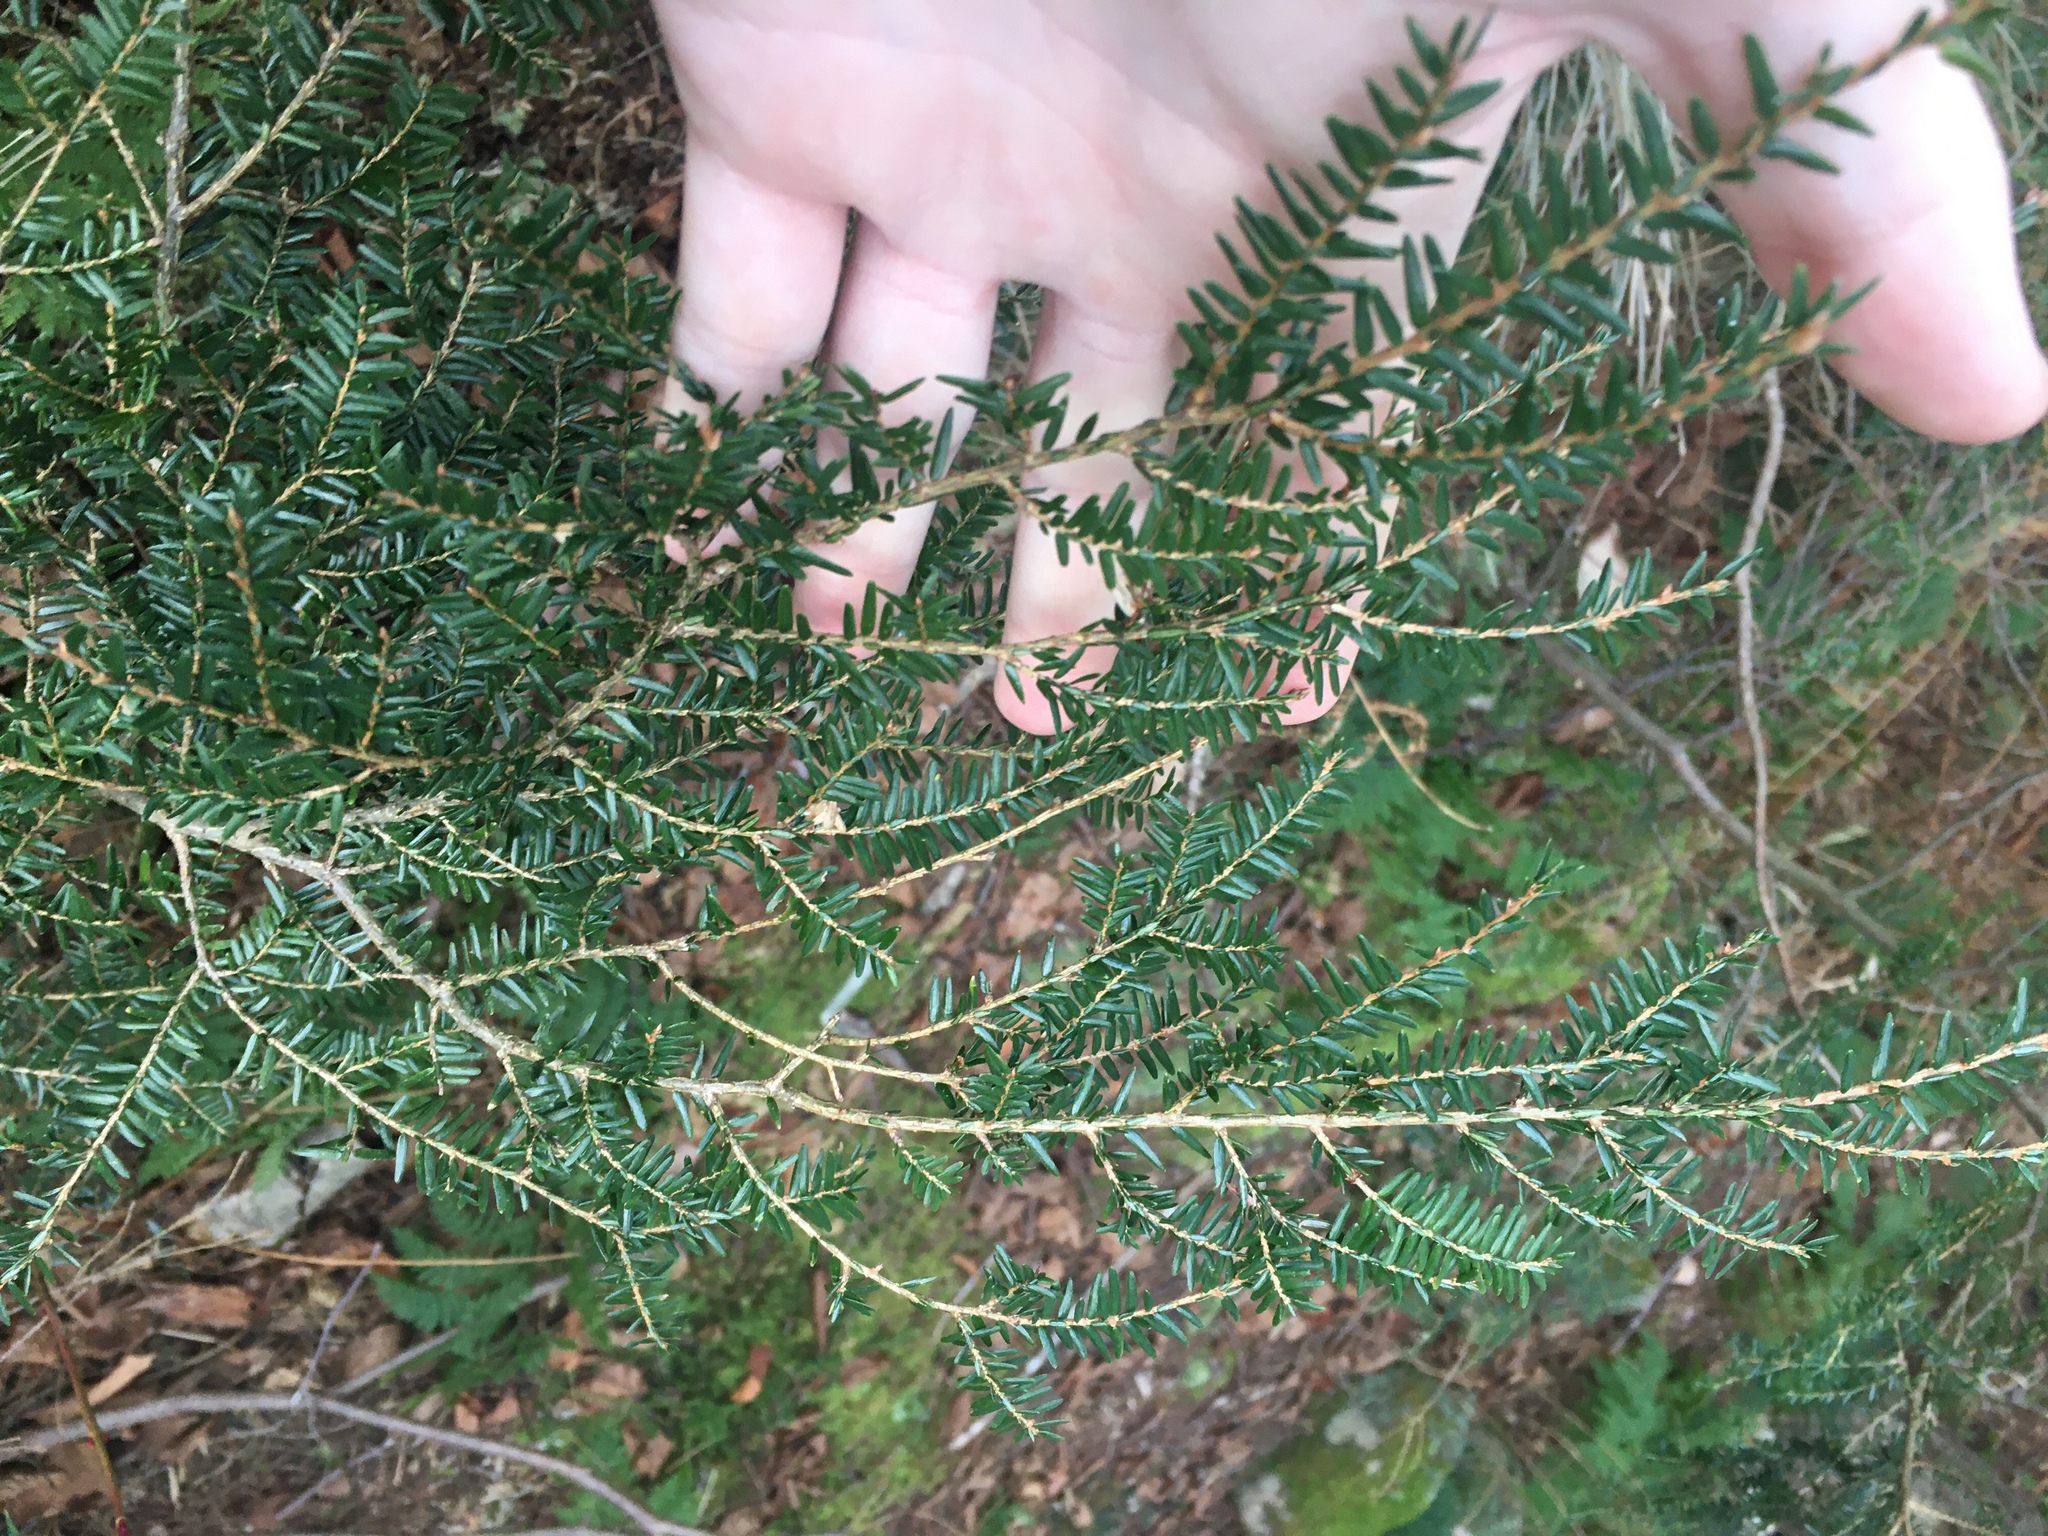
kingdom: Plantae
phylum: Tracheophyta
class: Pinopsida
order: Pinales
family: Pinaceae
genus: Tsuga
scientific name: Tsuga canadensis
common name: Eastern hemlock
